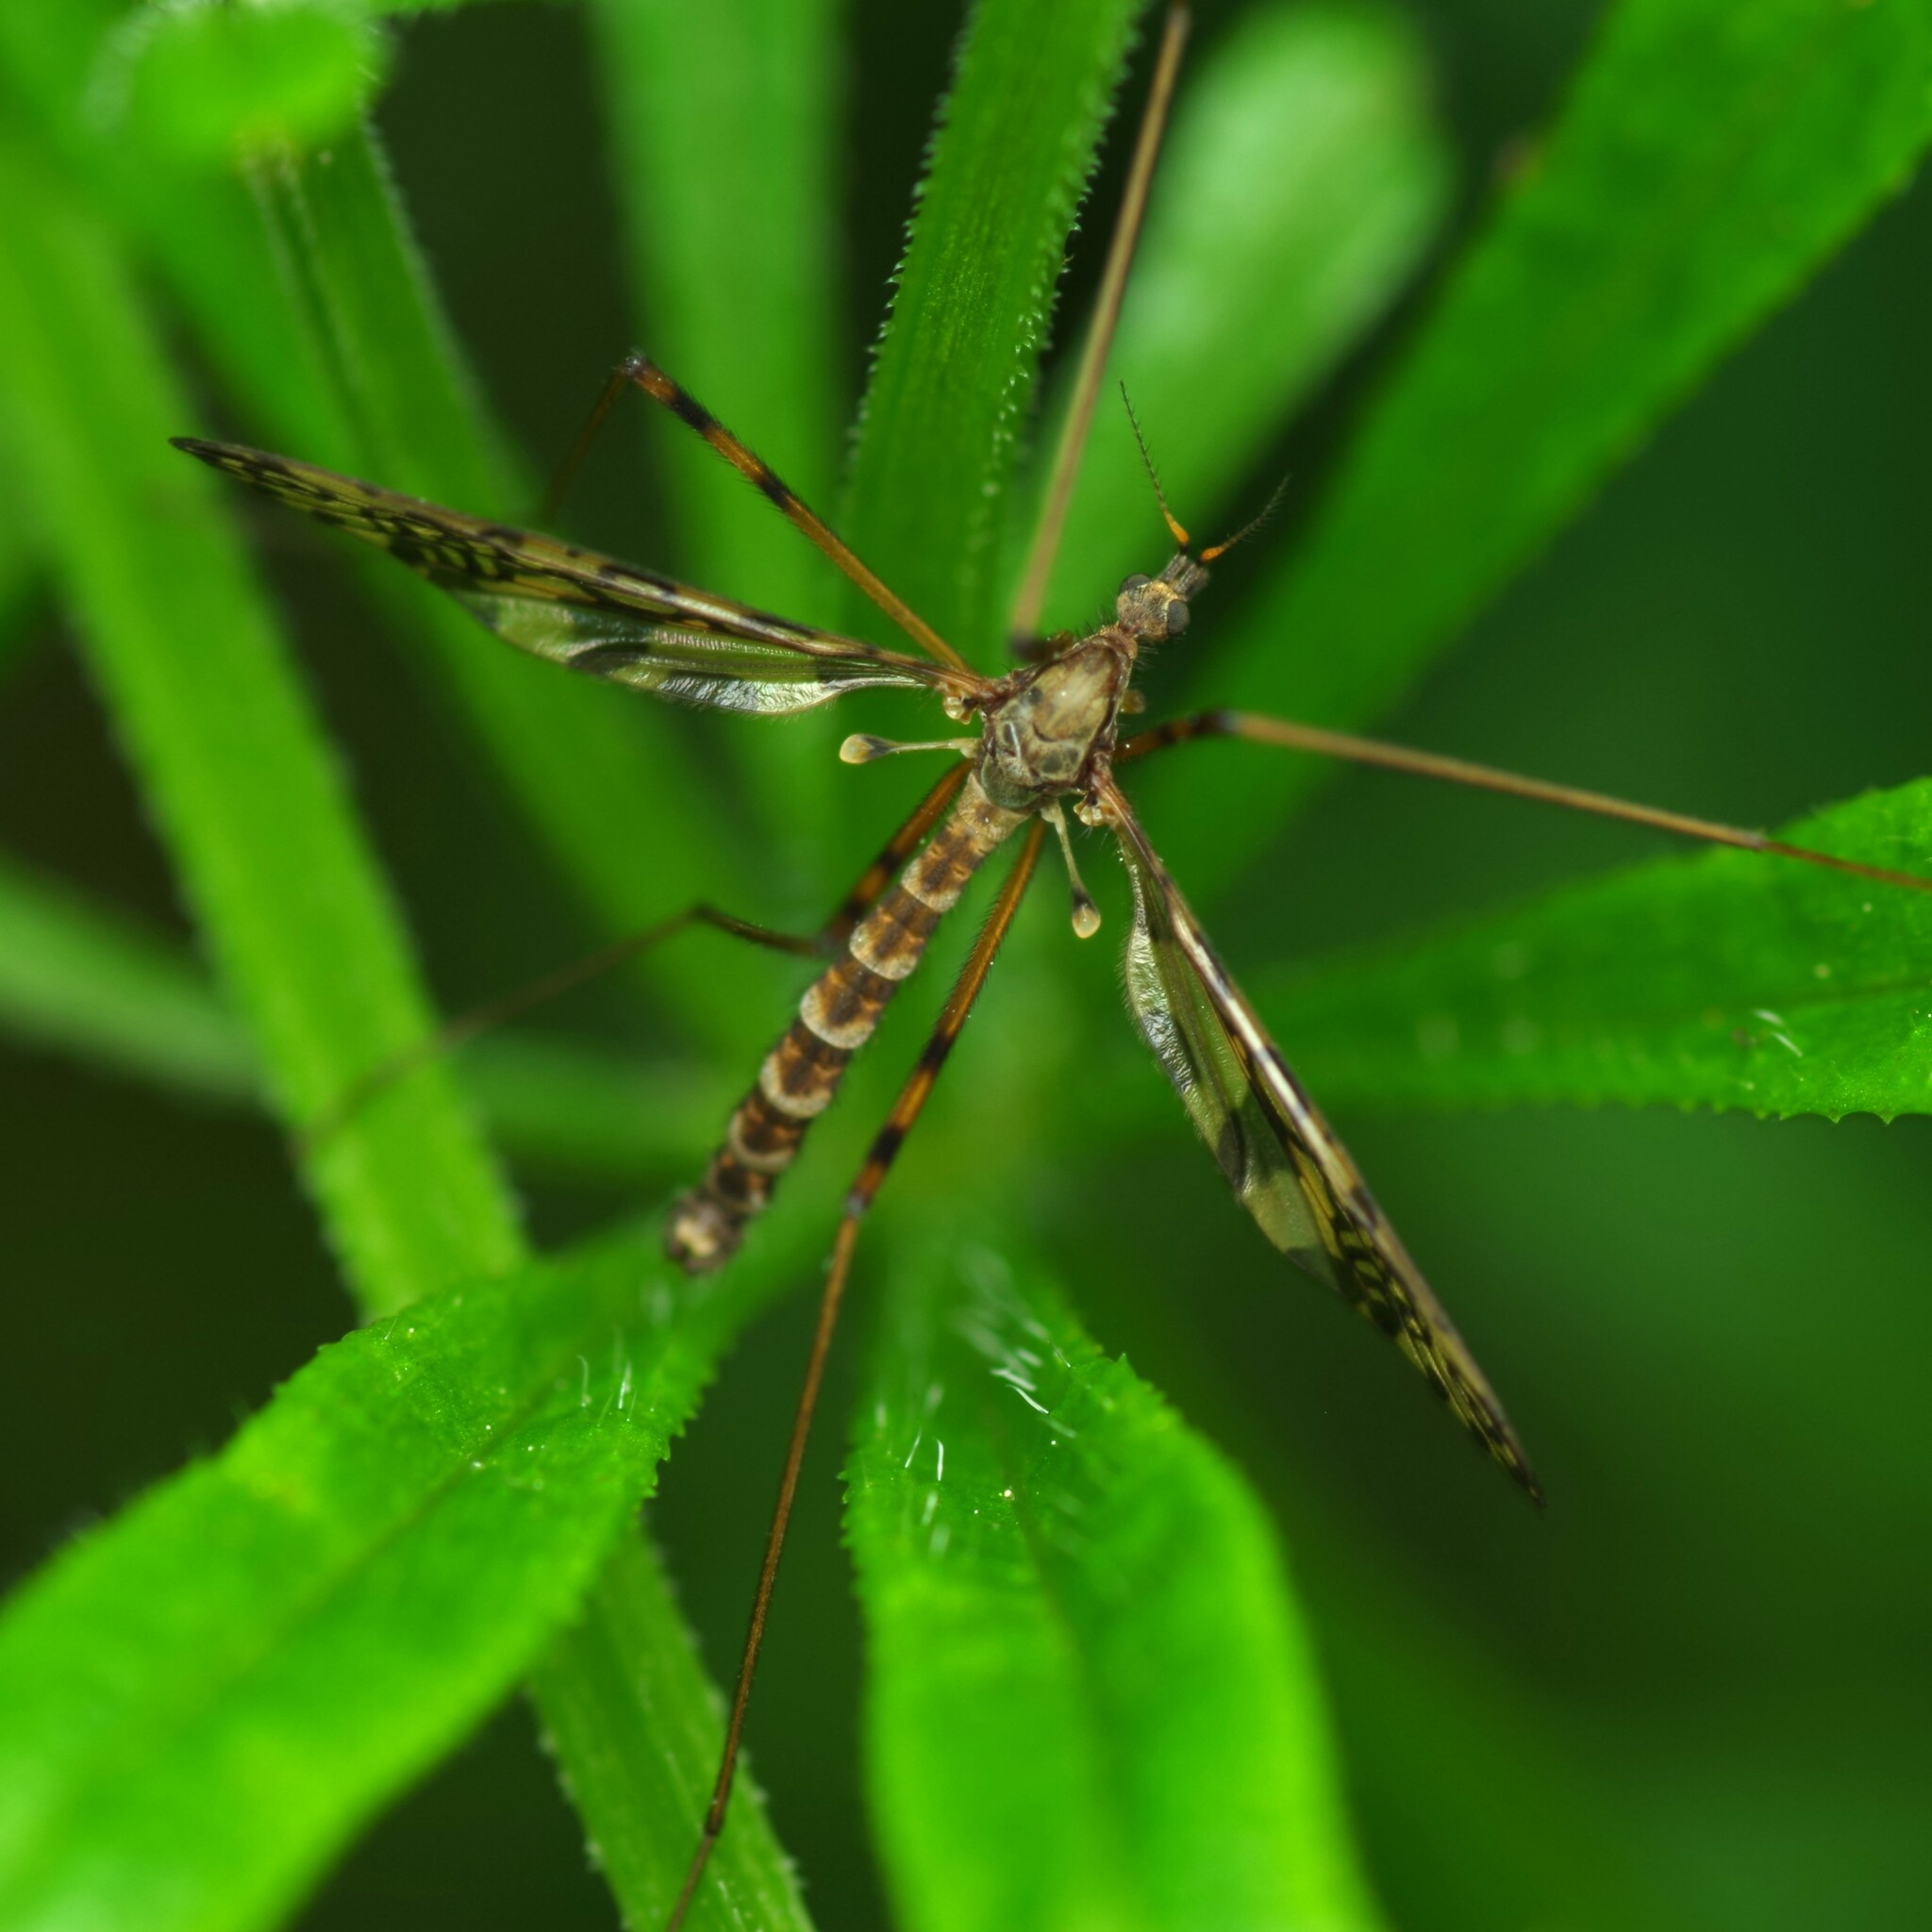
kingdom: Animalia
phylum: Arthropoda
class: Insecta
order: Diptera
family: Limoniidae
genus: Epiphragma
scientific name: Epiphragma ocellare
